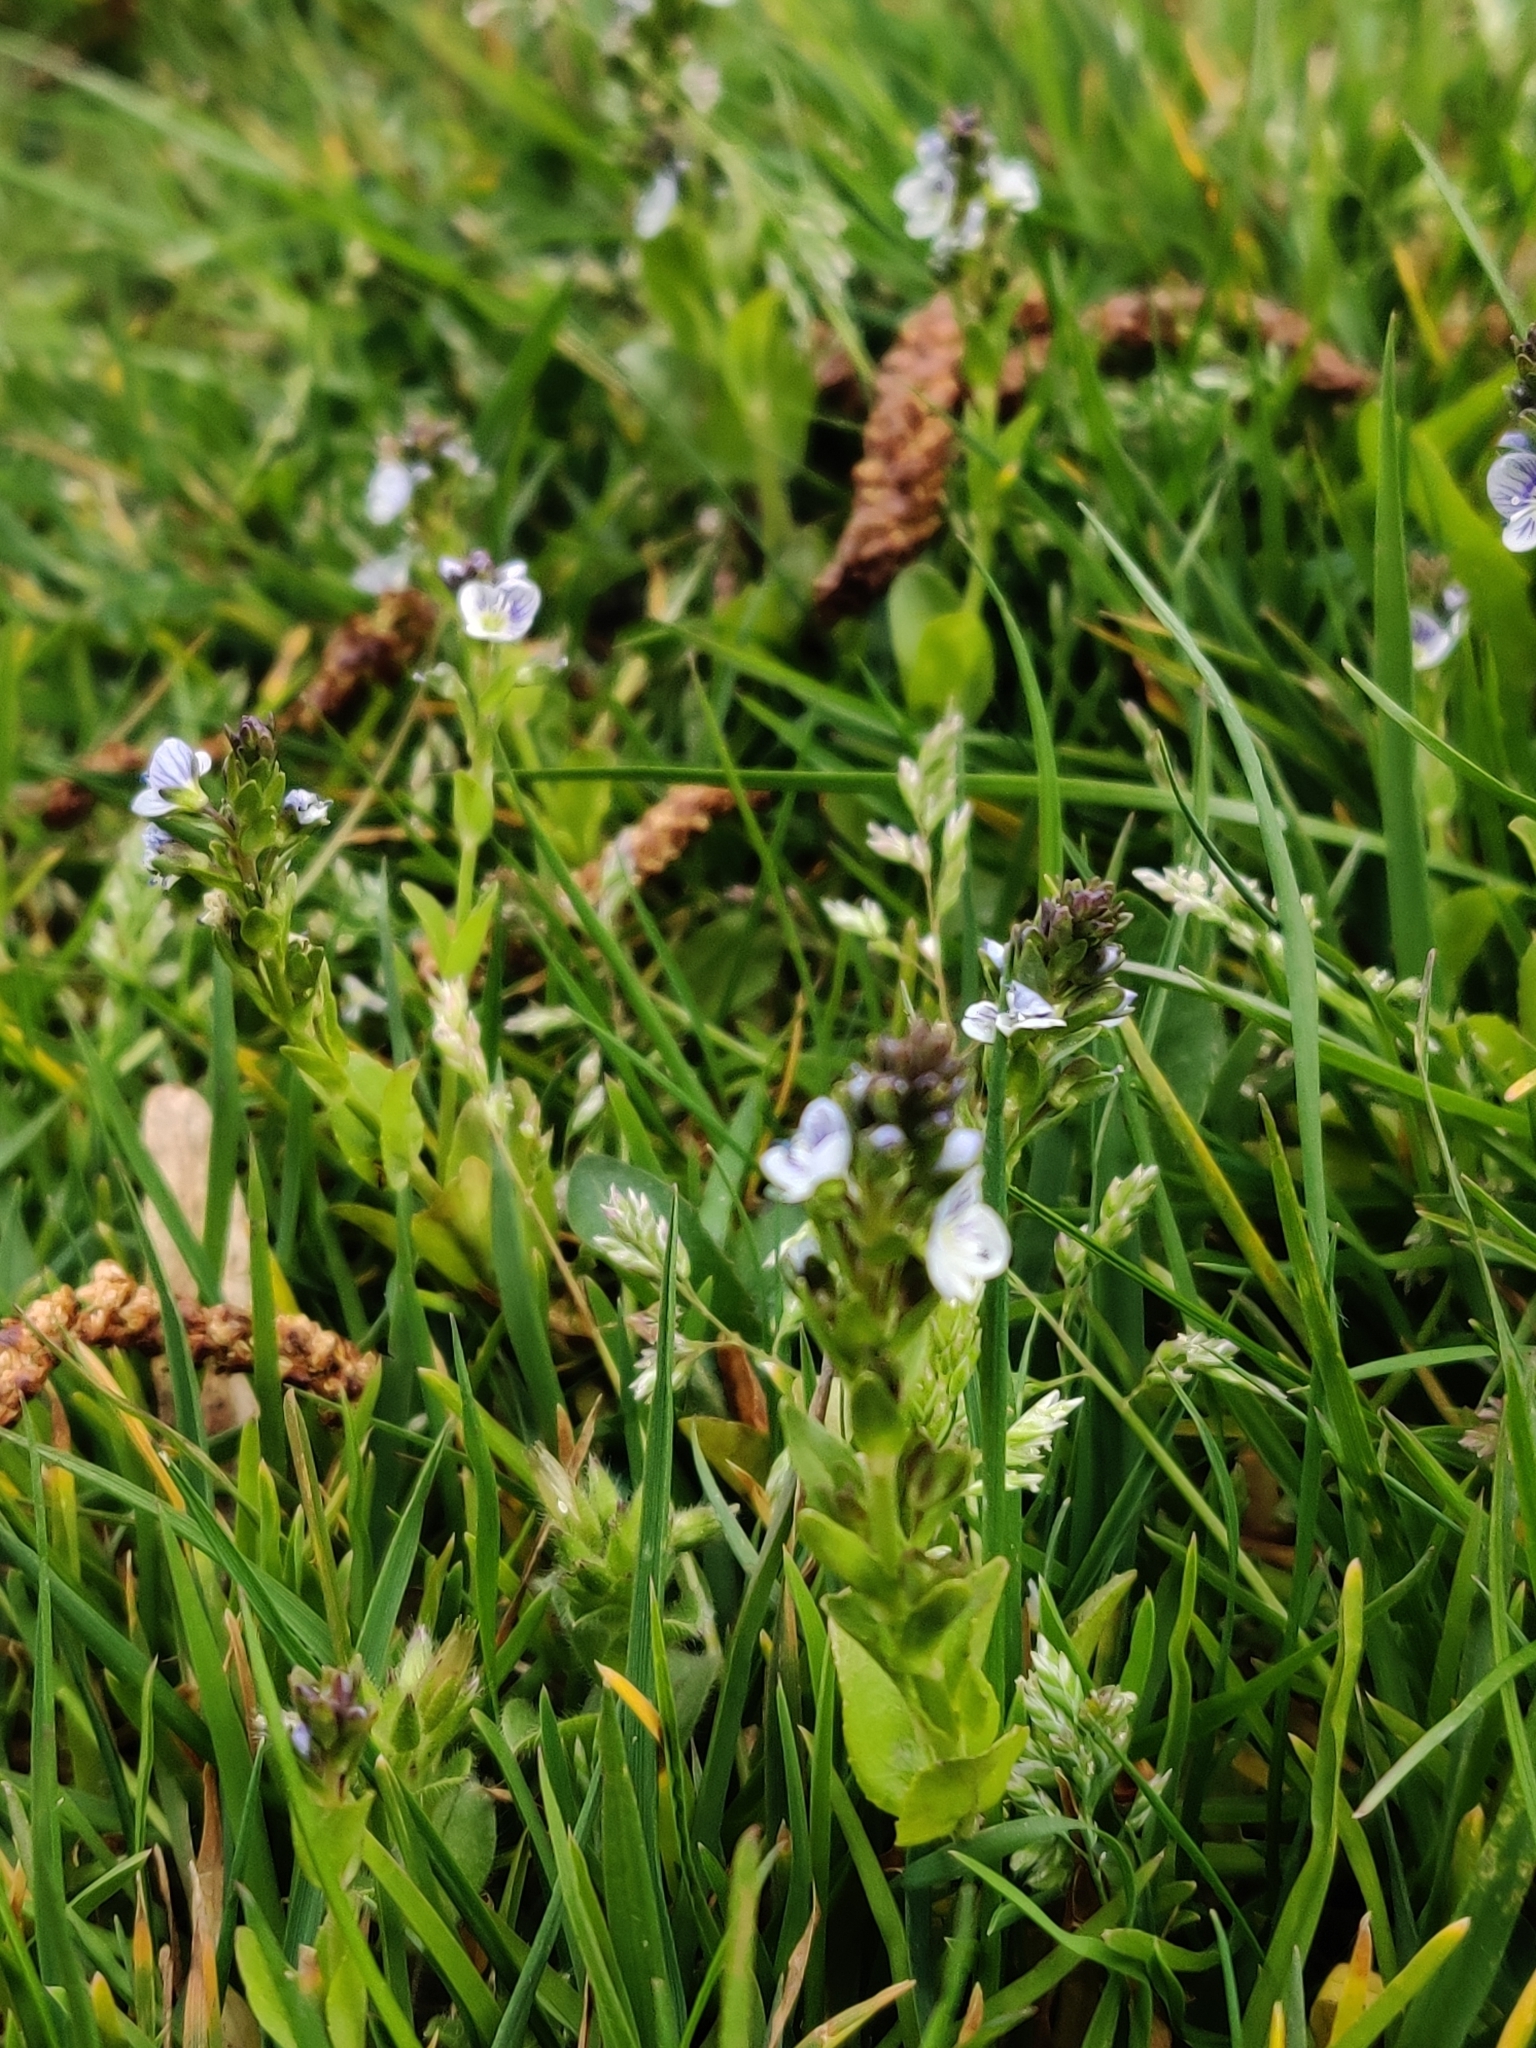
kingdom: Plantae
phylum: Tracheophyta
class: Magnoliopsida
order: Lamiales
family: Plantaginaceae
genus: Veronica
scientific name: Veronica serpyllifolia
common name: Thyme-leaved speedwell
